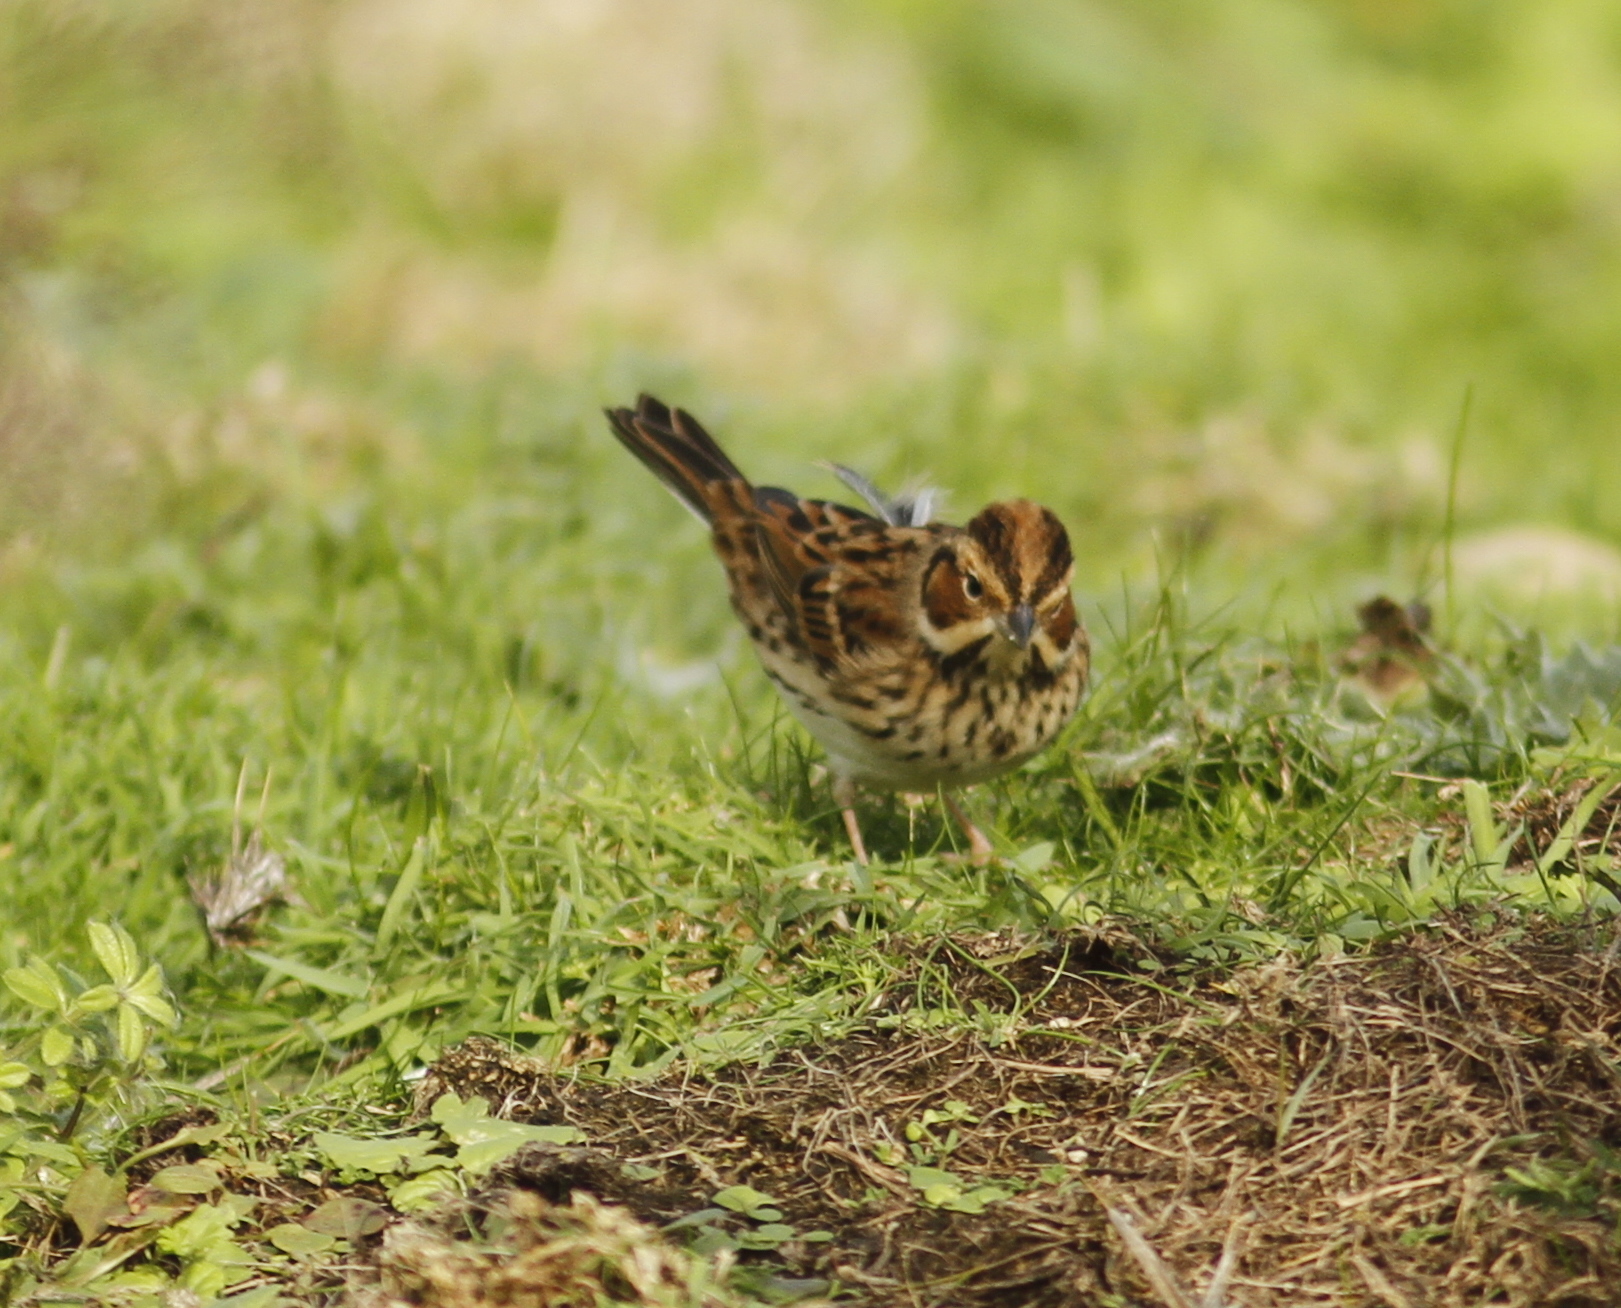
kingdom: Animalia
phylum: Chordata
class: Aves
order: Passeriformes
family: Emberizidae
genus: Emberiza
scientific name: Emberiza pusilla
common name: Little bunting
